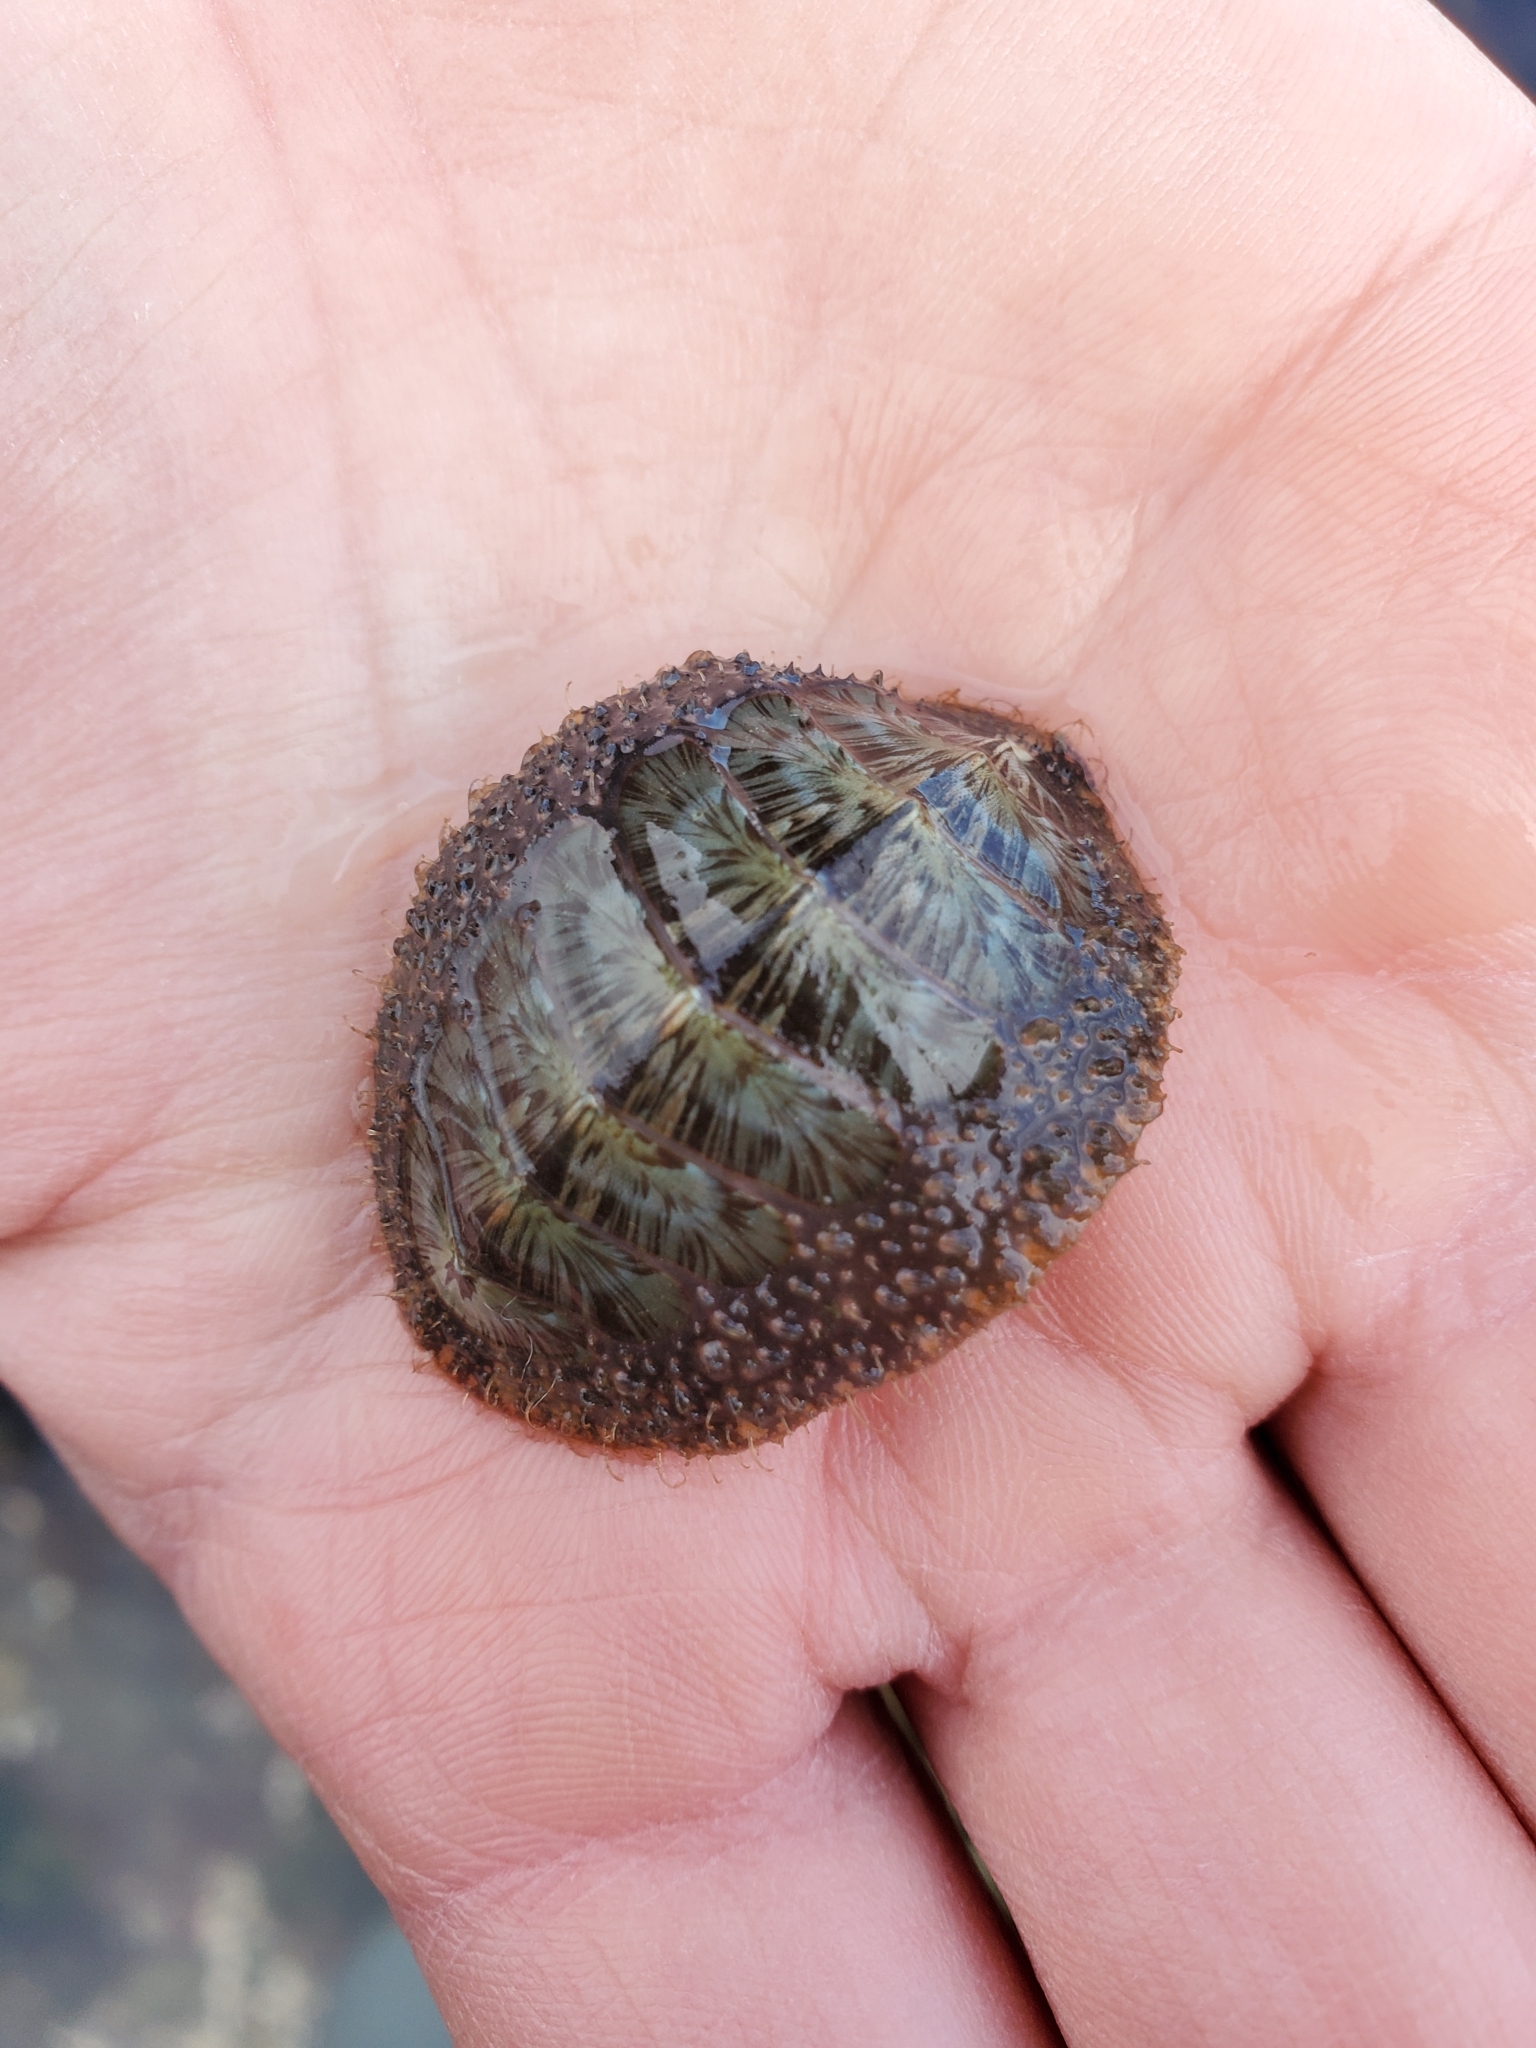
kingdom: Animalia
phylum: Mollusca
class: Polyplacophora
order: Chitonida
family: Mopaliidae
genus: Mopalia
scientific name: Mopalia lignosa
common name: Woody chiton
